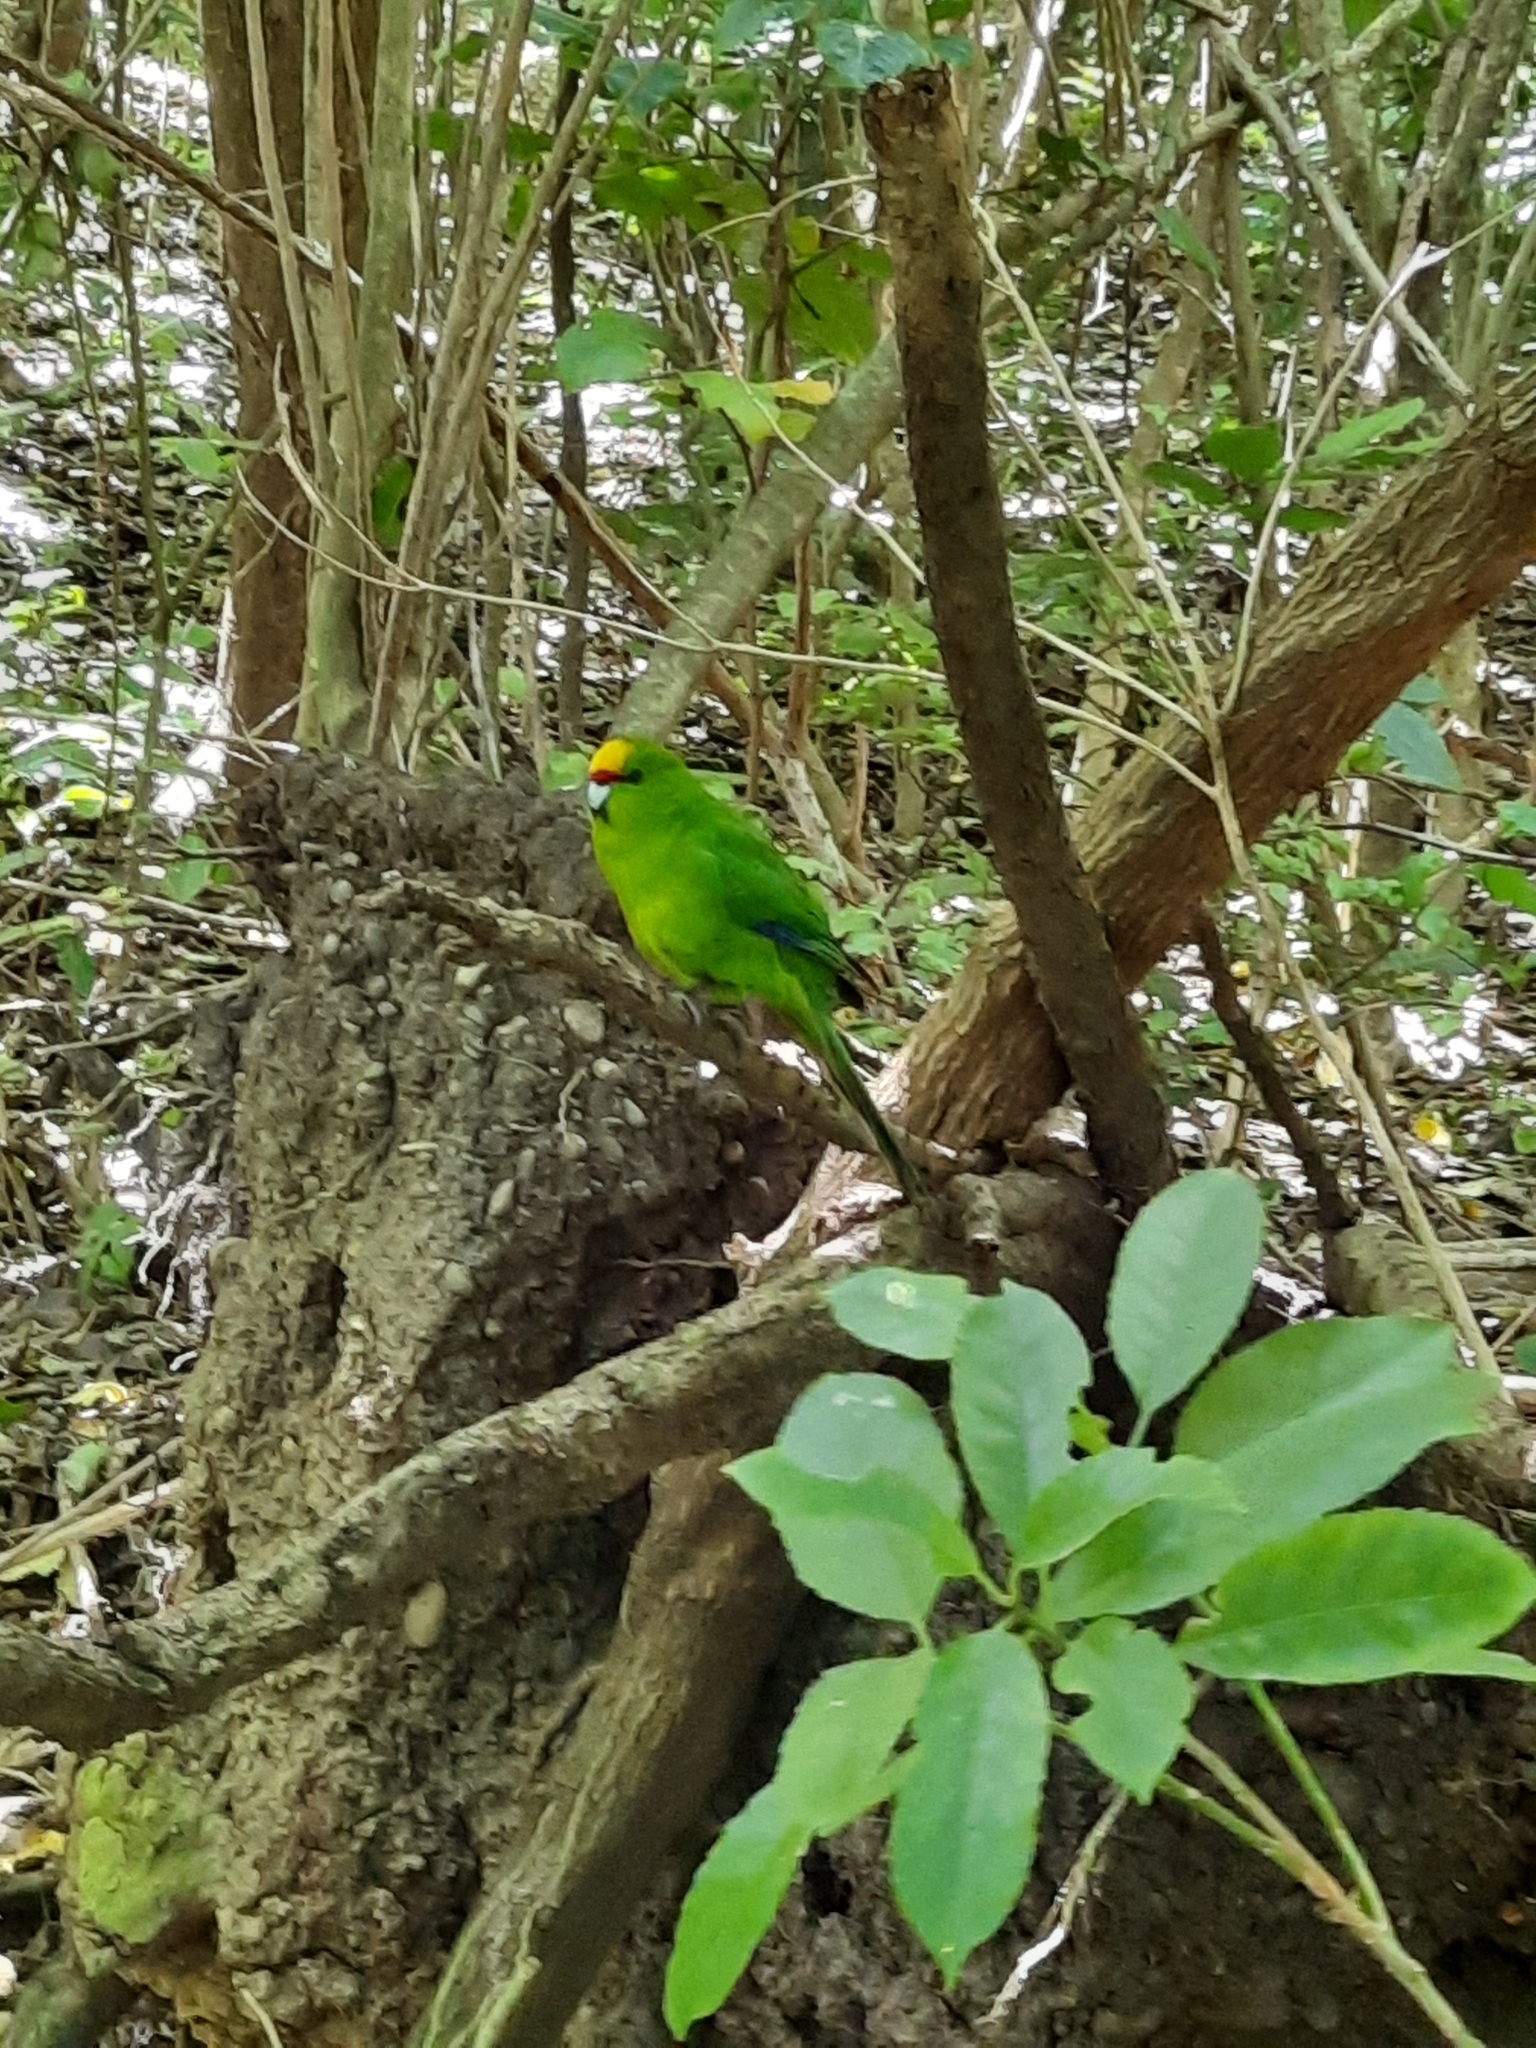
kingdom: Animalia
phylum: Chordata
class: Aves
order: Psittaciformes
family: Psittacidae
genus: Cyanoramphus
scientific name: Cyanoramphus auriceps
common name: Yellow-crowned parakeet
